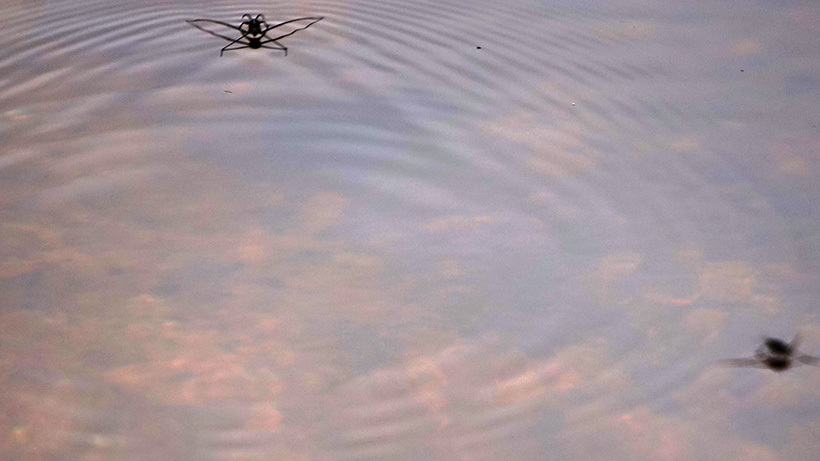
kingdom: Animalia
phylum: Arthropoda
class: Insecta
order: Hemiptera
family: Gerridae
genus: Metrobates
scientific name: Metrobates hesperius
